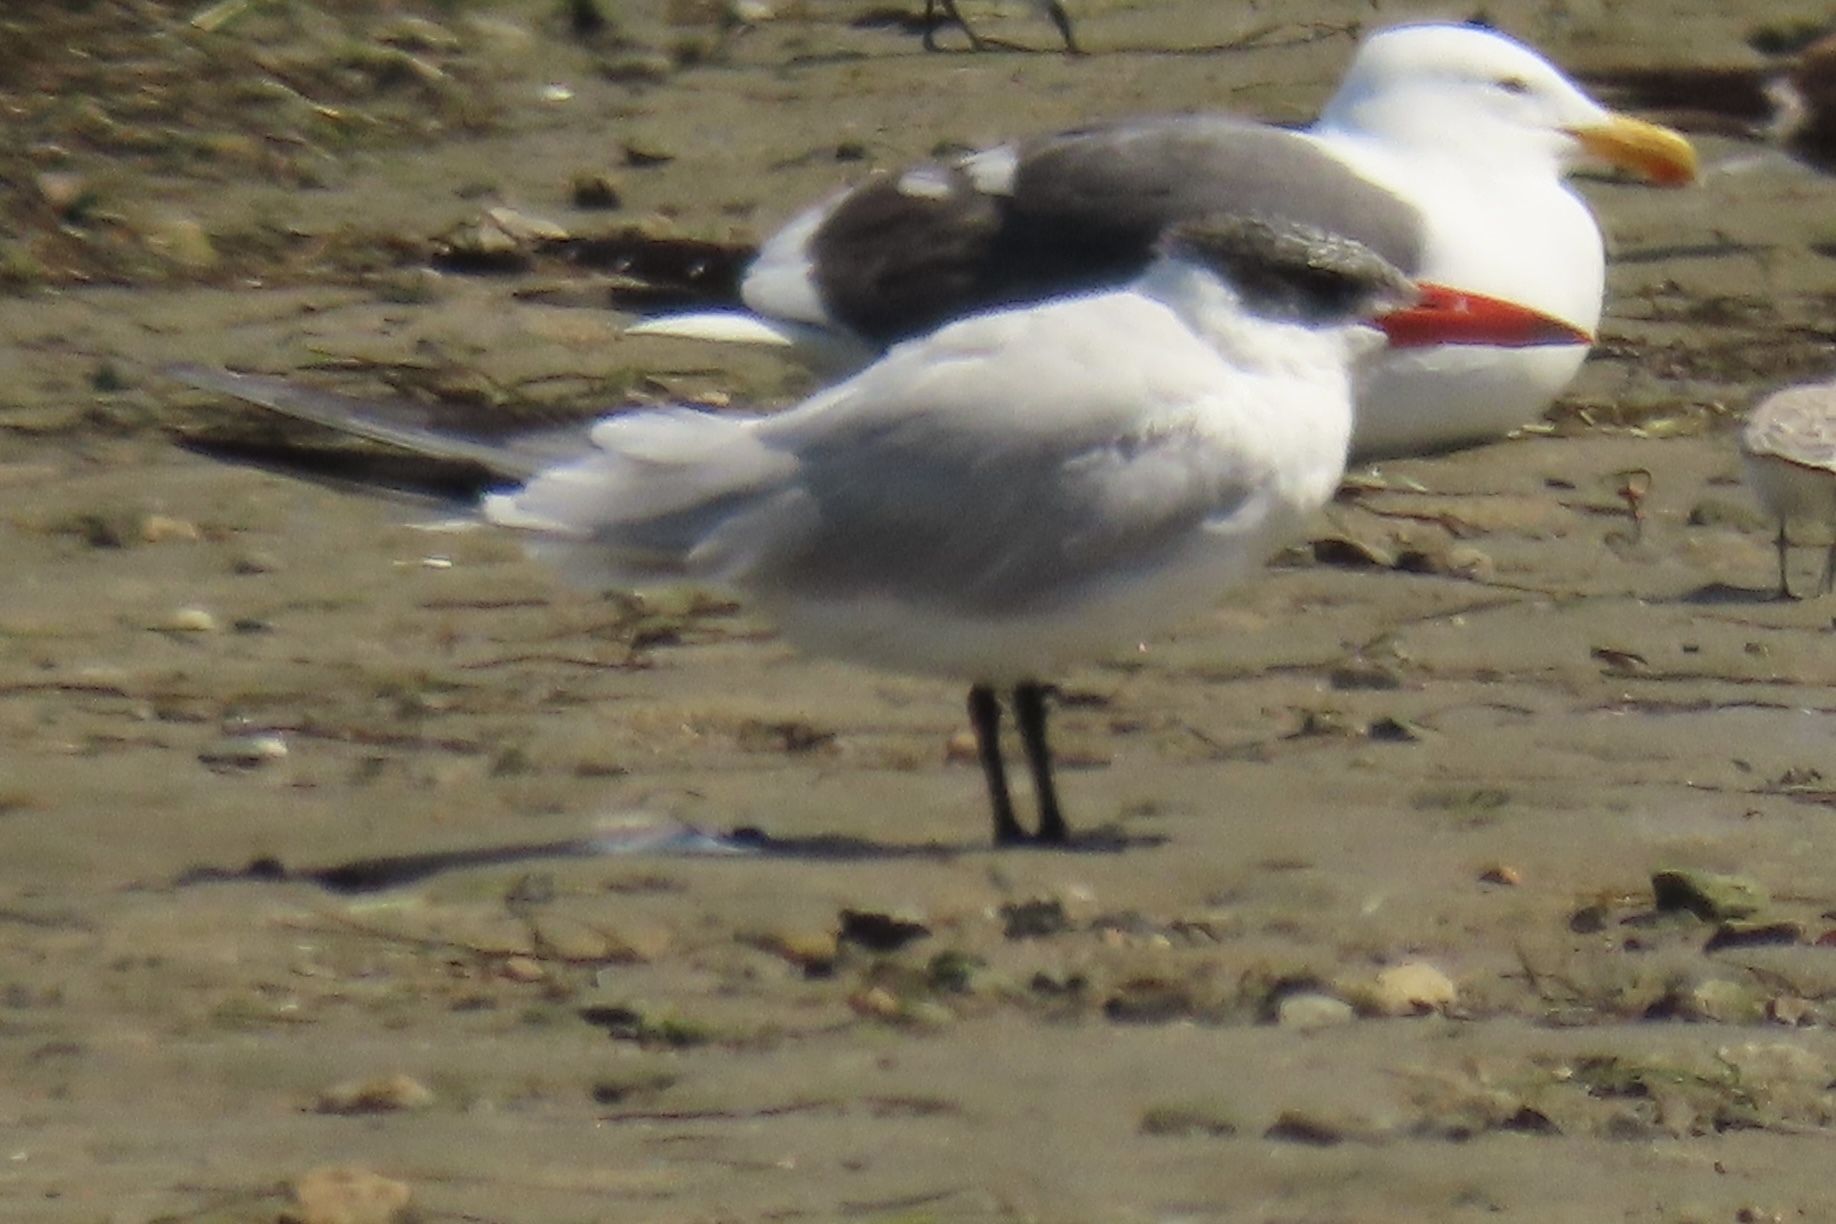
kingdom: Animalia
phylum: Chordata
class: Aves
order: Charadriiformes
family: Laridae
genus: Hydroprogne
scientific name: Hydroprogne caspia
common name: Caspian tern
